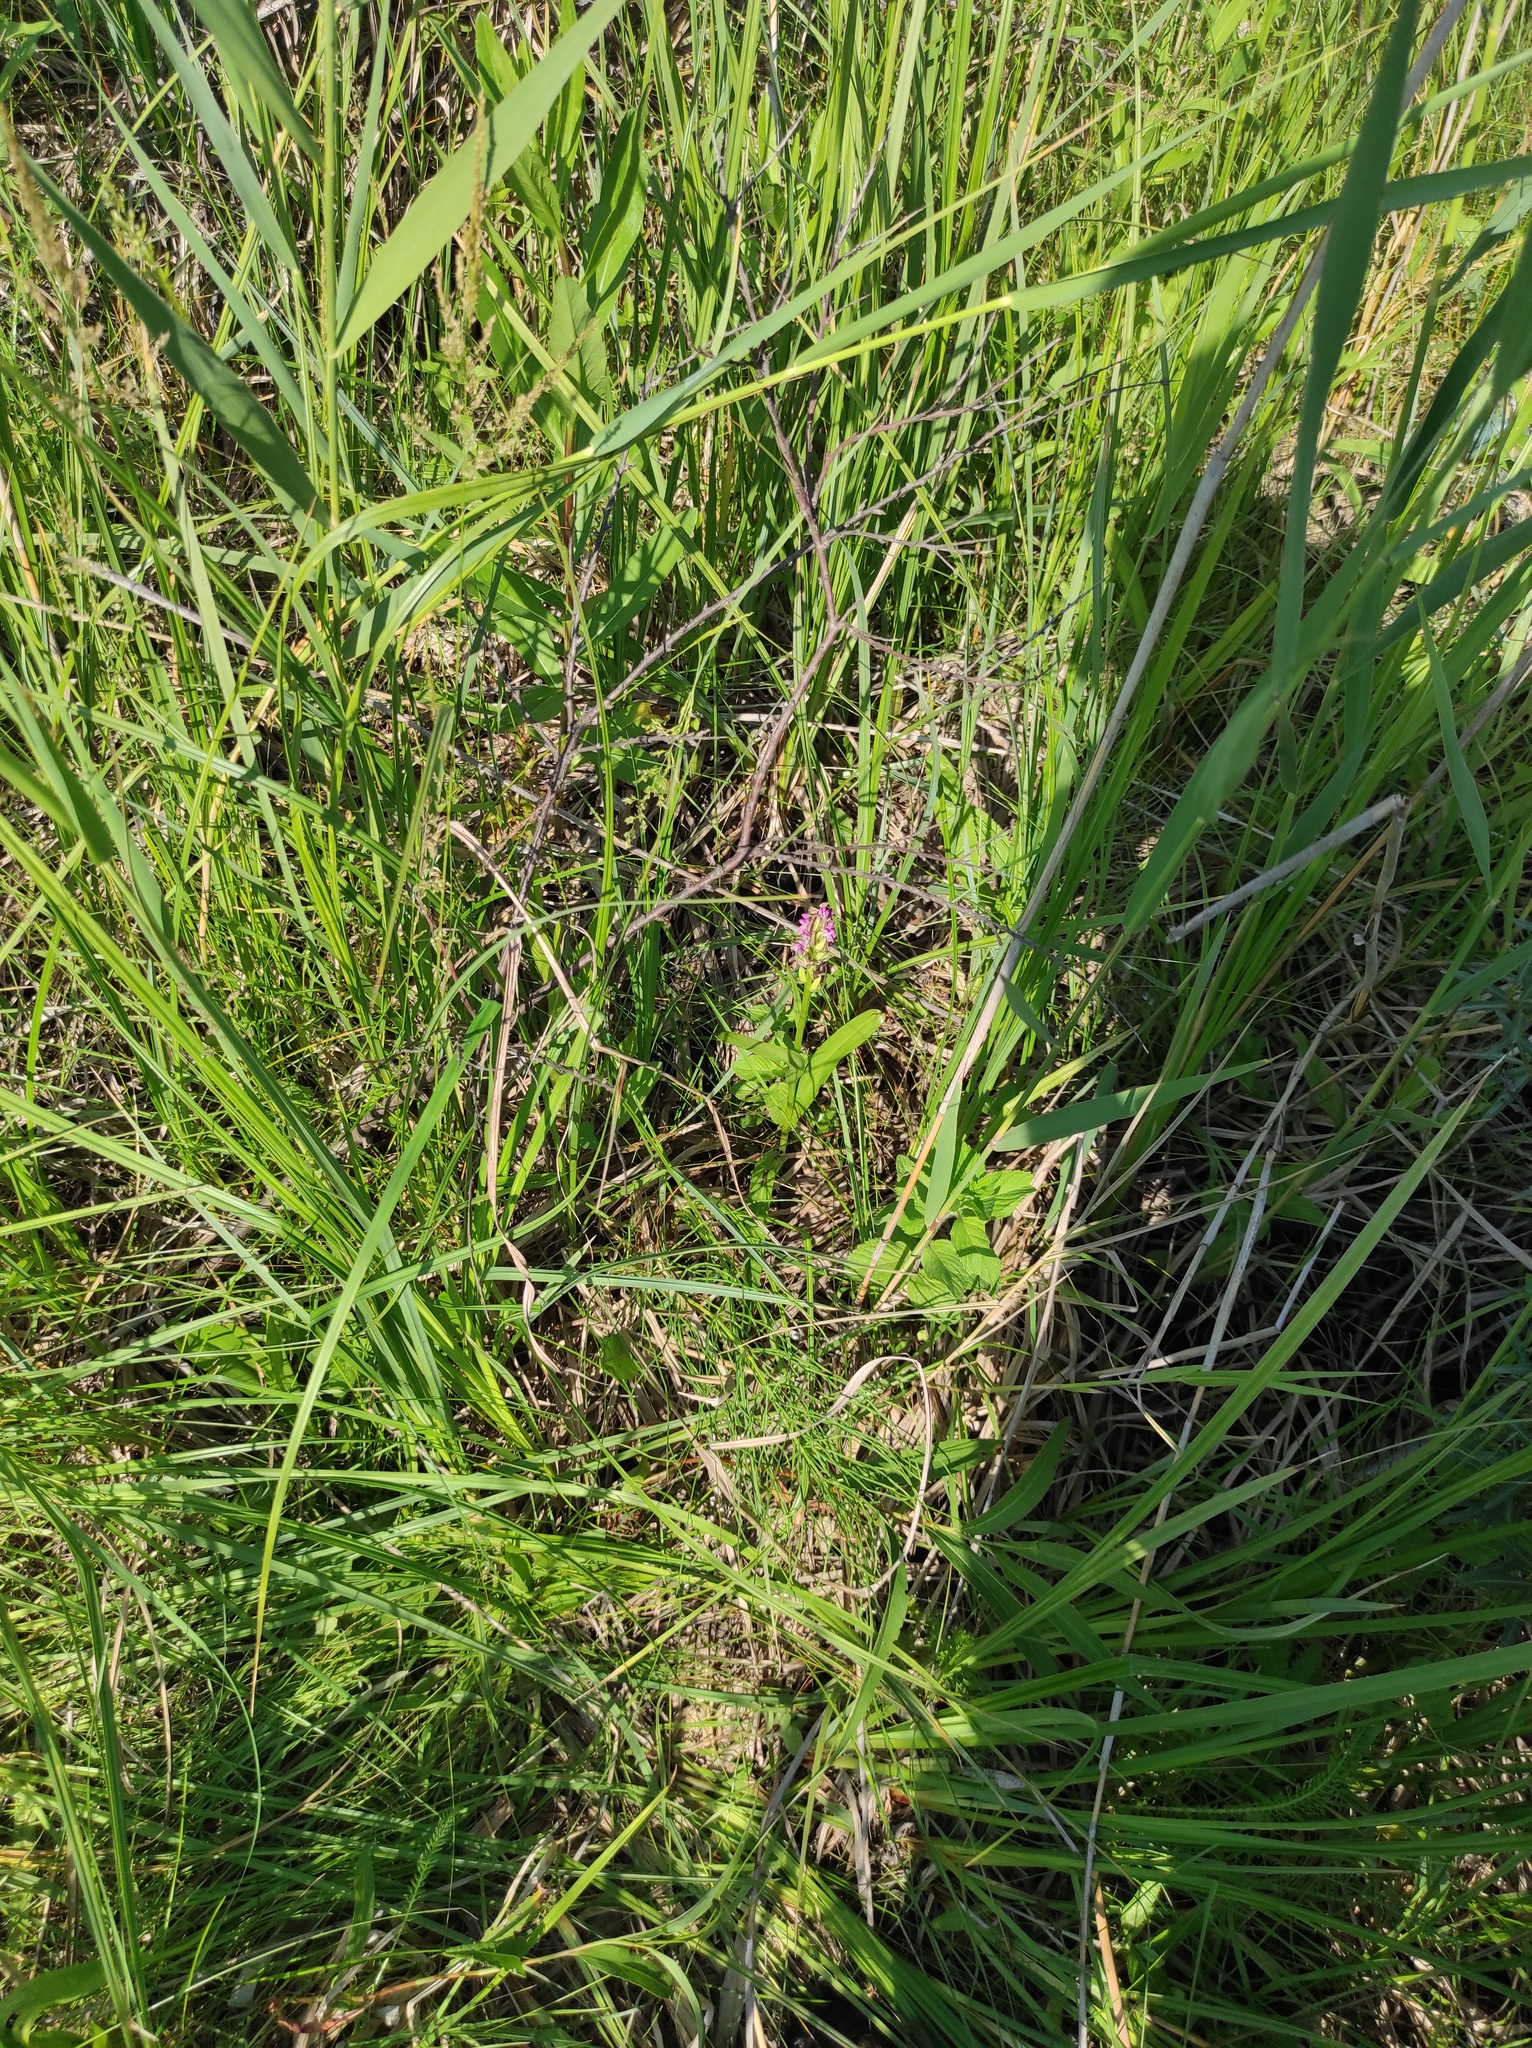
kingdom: Plantae
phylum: Tracheophyta
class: Liliopsida
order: Asparagales
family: Orchidaceae
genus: Dactylorhiza
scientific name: Dactylorhiza incarnata
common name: Early marsh-orchid
